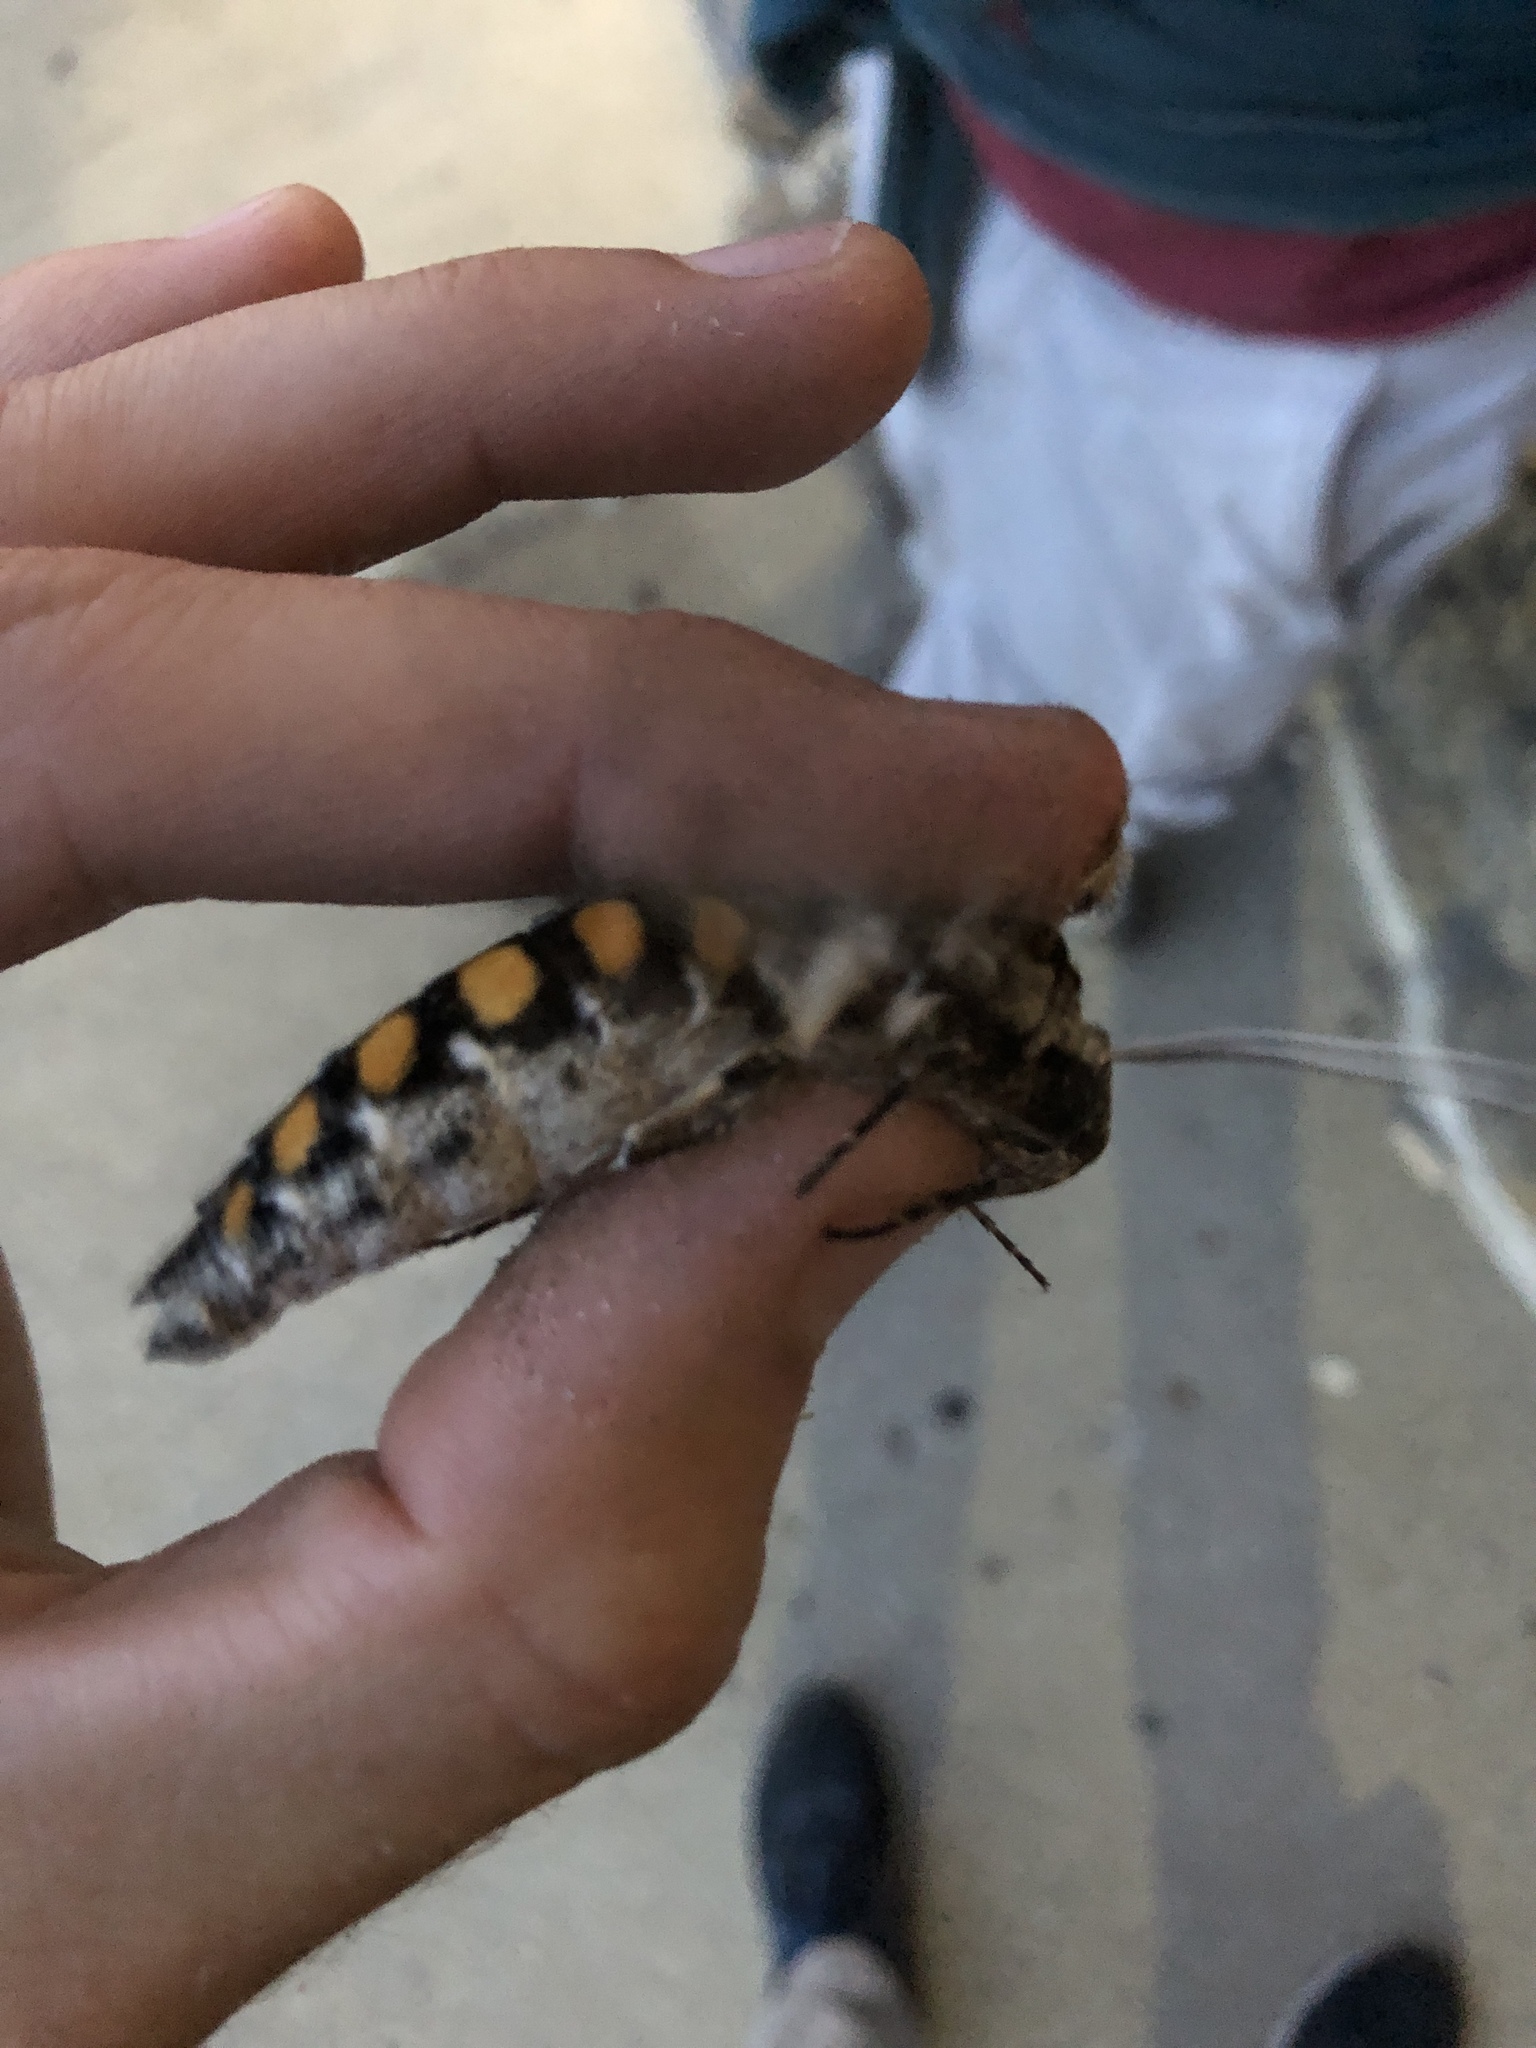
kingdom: Animalia
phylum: Arthropoda
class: Insecta
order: Lepidoptera
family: Sphingidae
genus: Manduca
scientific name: Manduca sexta
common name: Carolina sphinx
